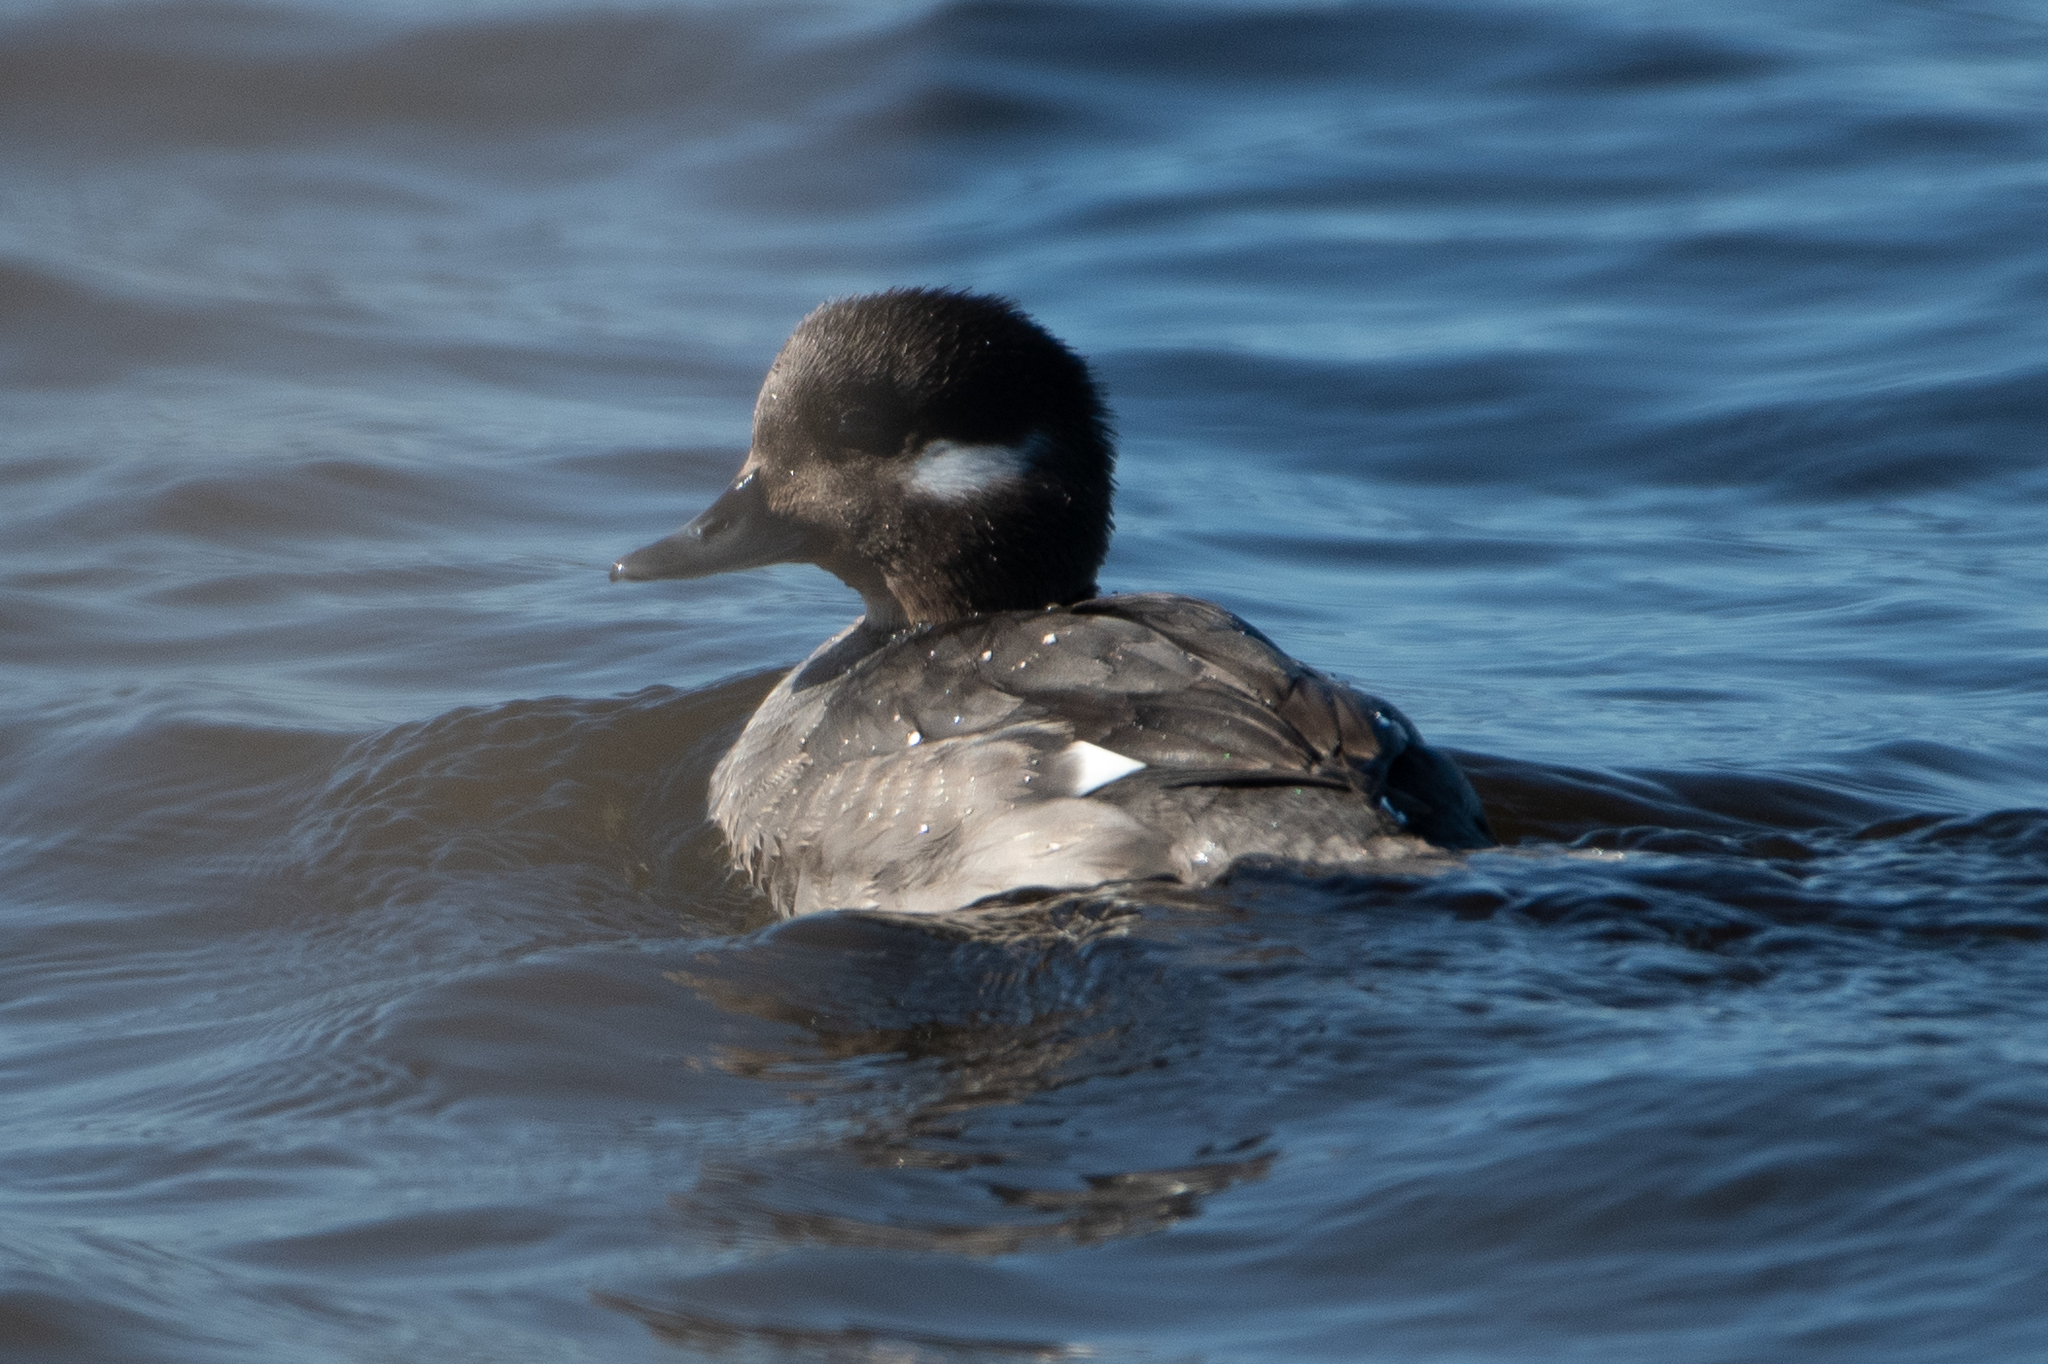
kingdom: Animalia
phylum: Chordata
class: Aves
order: Anseriformes
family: Anatidae
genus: Bucephala
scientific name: Bucephala albeola
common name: Bufflehead
